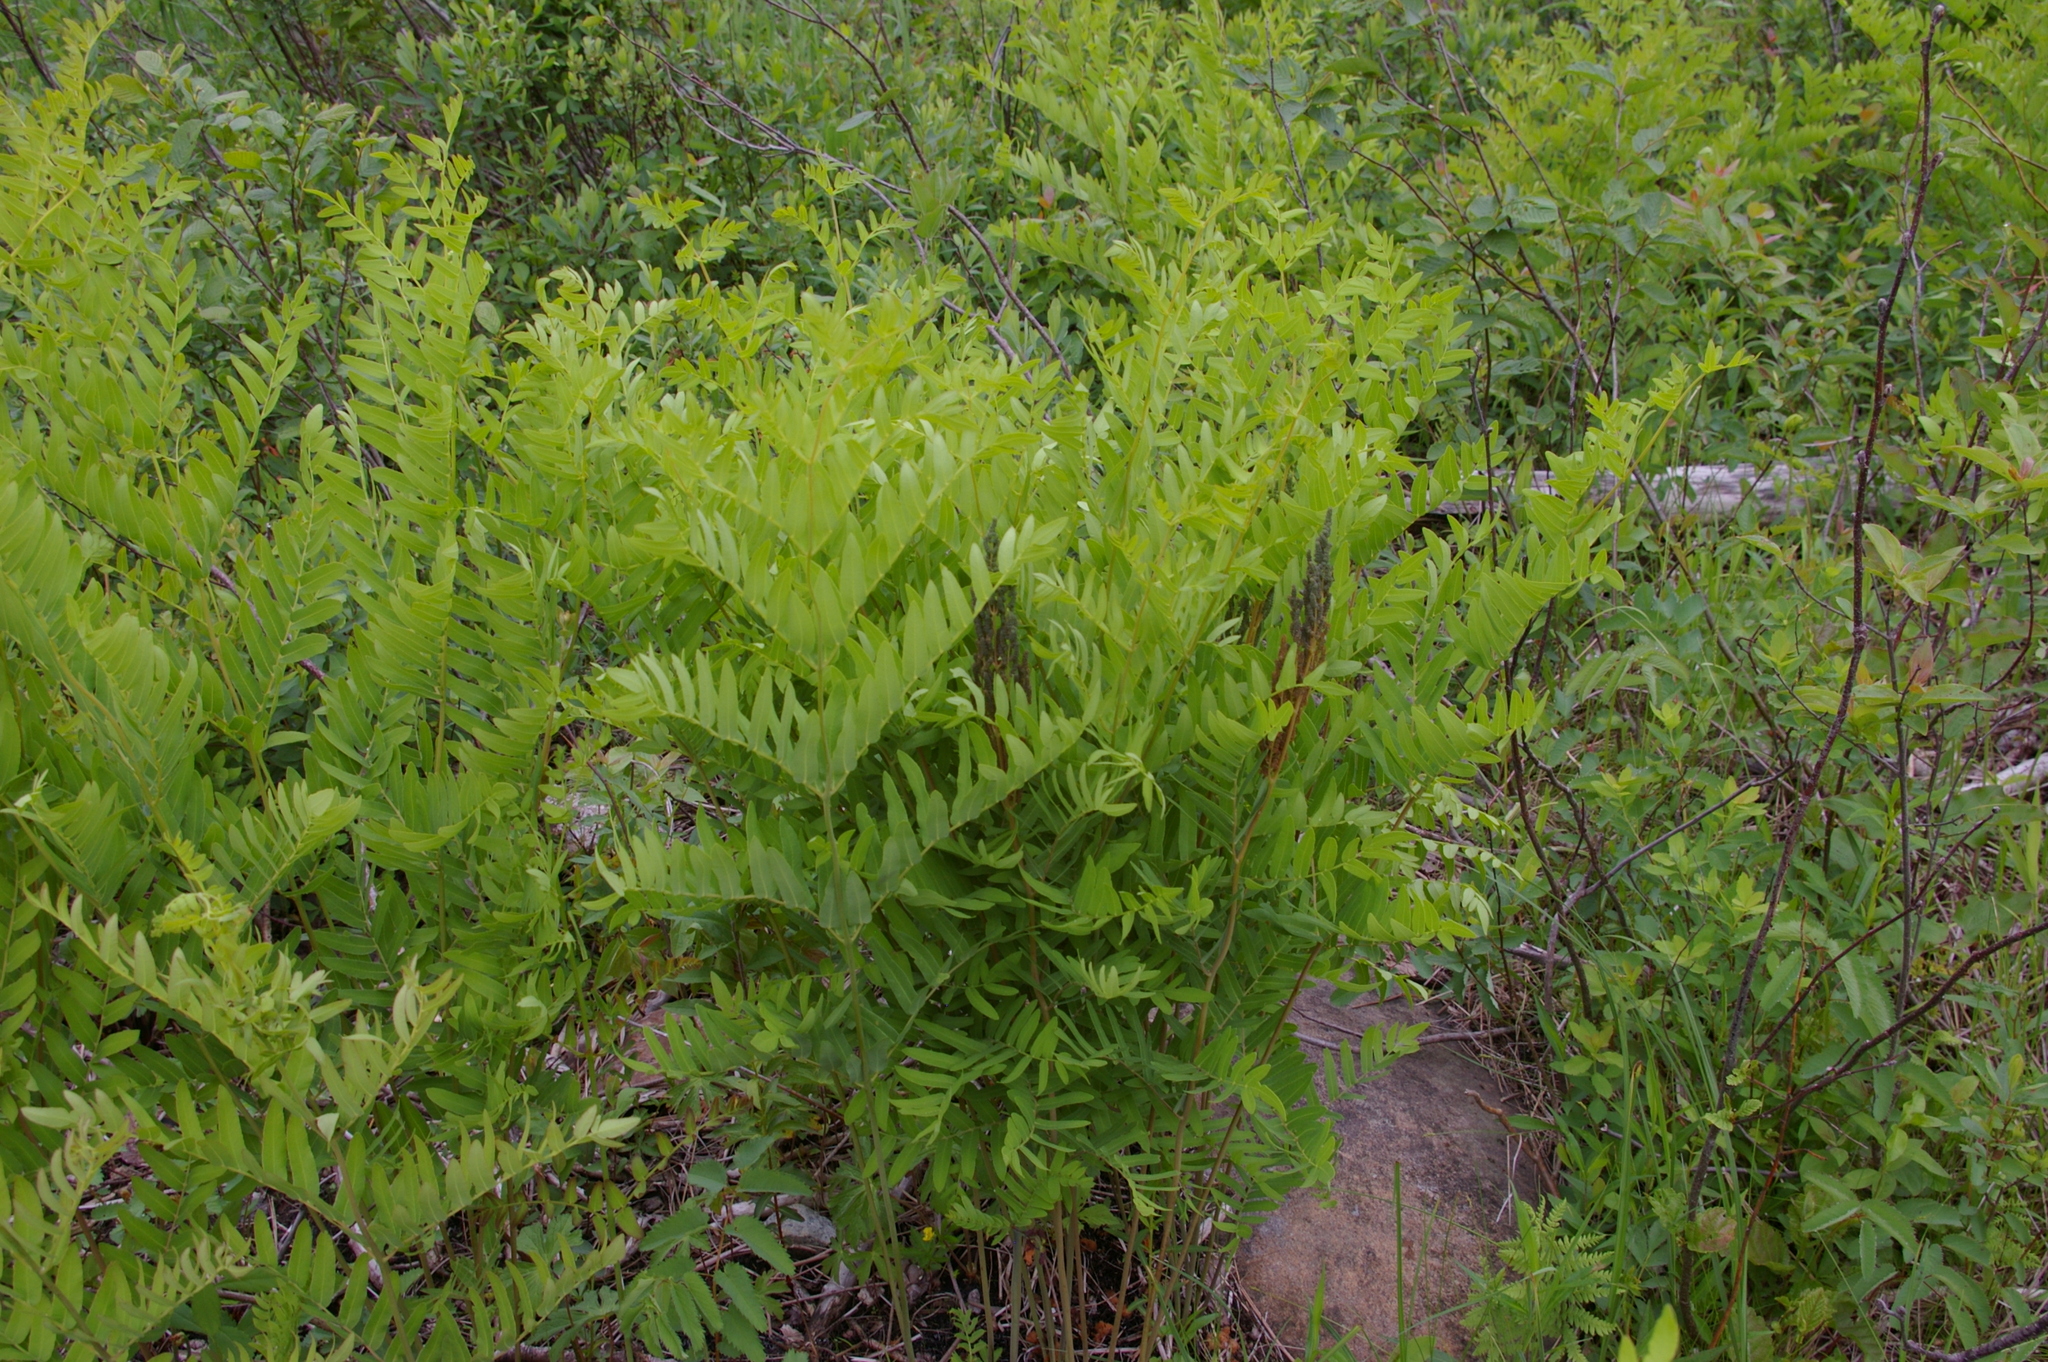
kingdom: Plantae
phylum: Tracheophyta
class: Polypodiopsida
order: Osmundales
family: Osmundaceae
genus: Osmunda
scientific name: Osmunda spectabilis
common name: American royal fern
